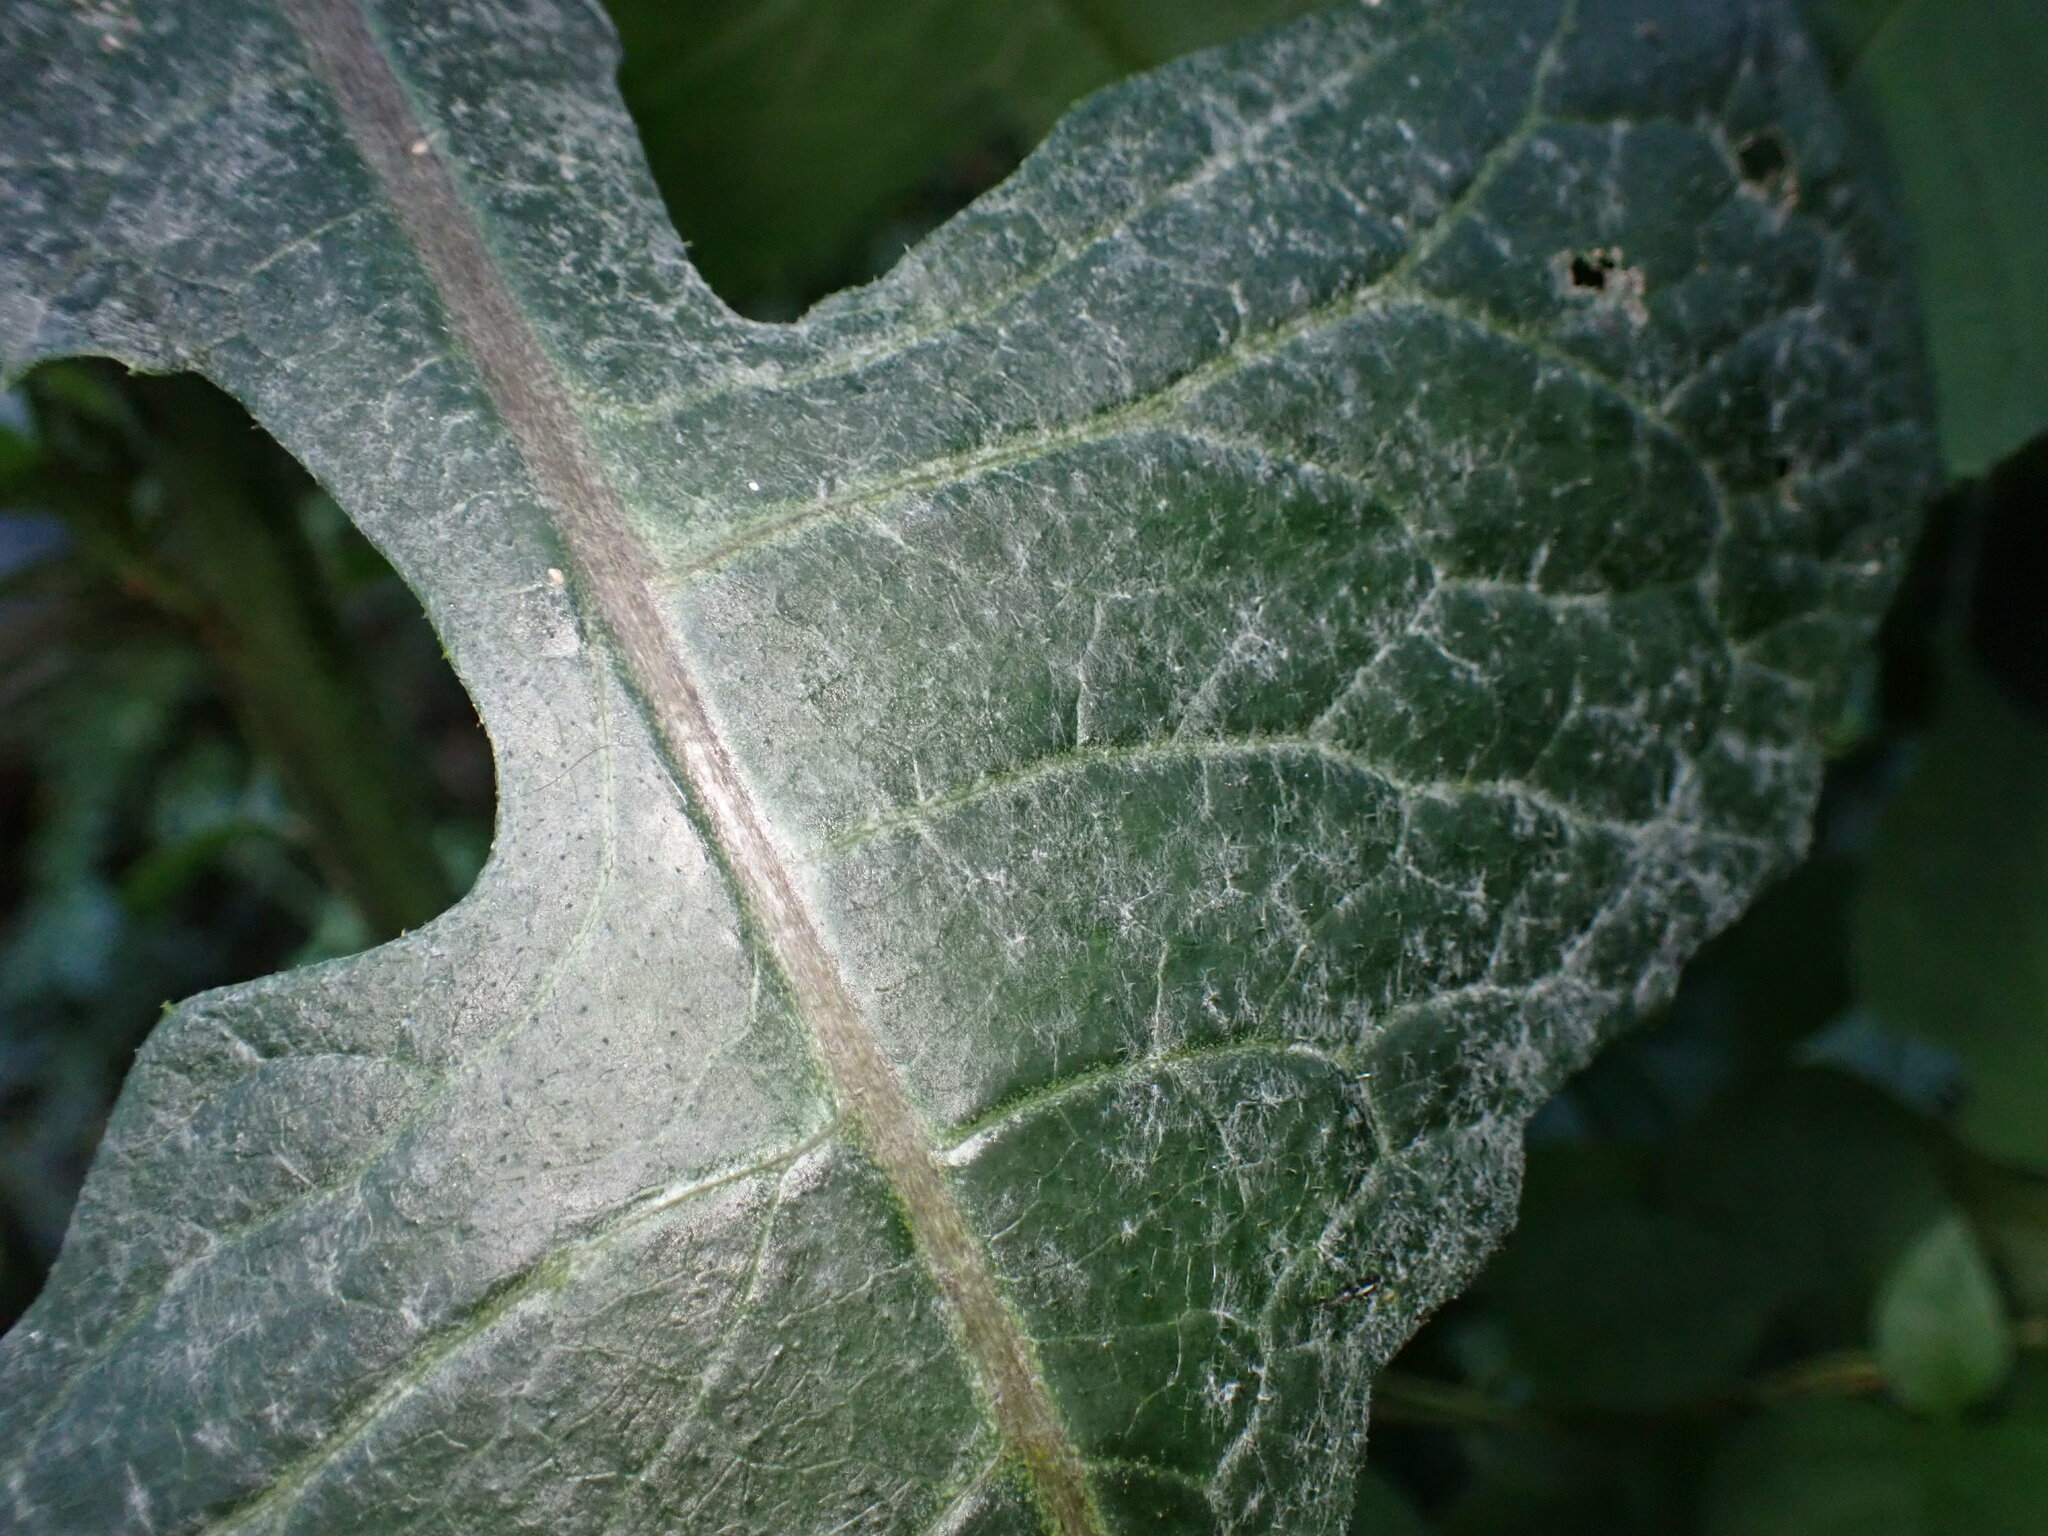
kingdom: Fungi
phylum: Ascomycota
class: Leotiomycetes
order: Helotiales
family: Erysiphaceae
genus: Golovinomyces
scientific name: Golovinomyces bolayi
